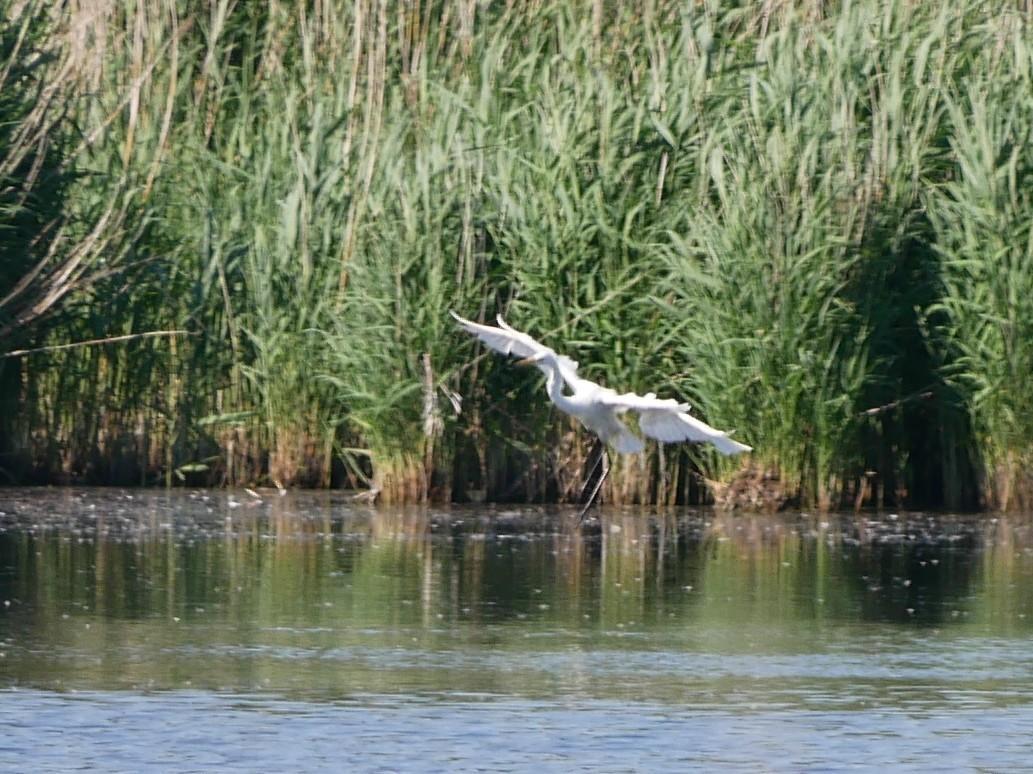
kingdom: Animalia
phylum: Chordata
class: Aves
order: Pelecaniformes
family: Ardeidae
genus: Ardea
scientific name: Ardea alba
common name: Great egret
